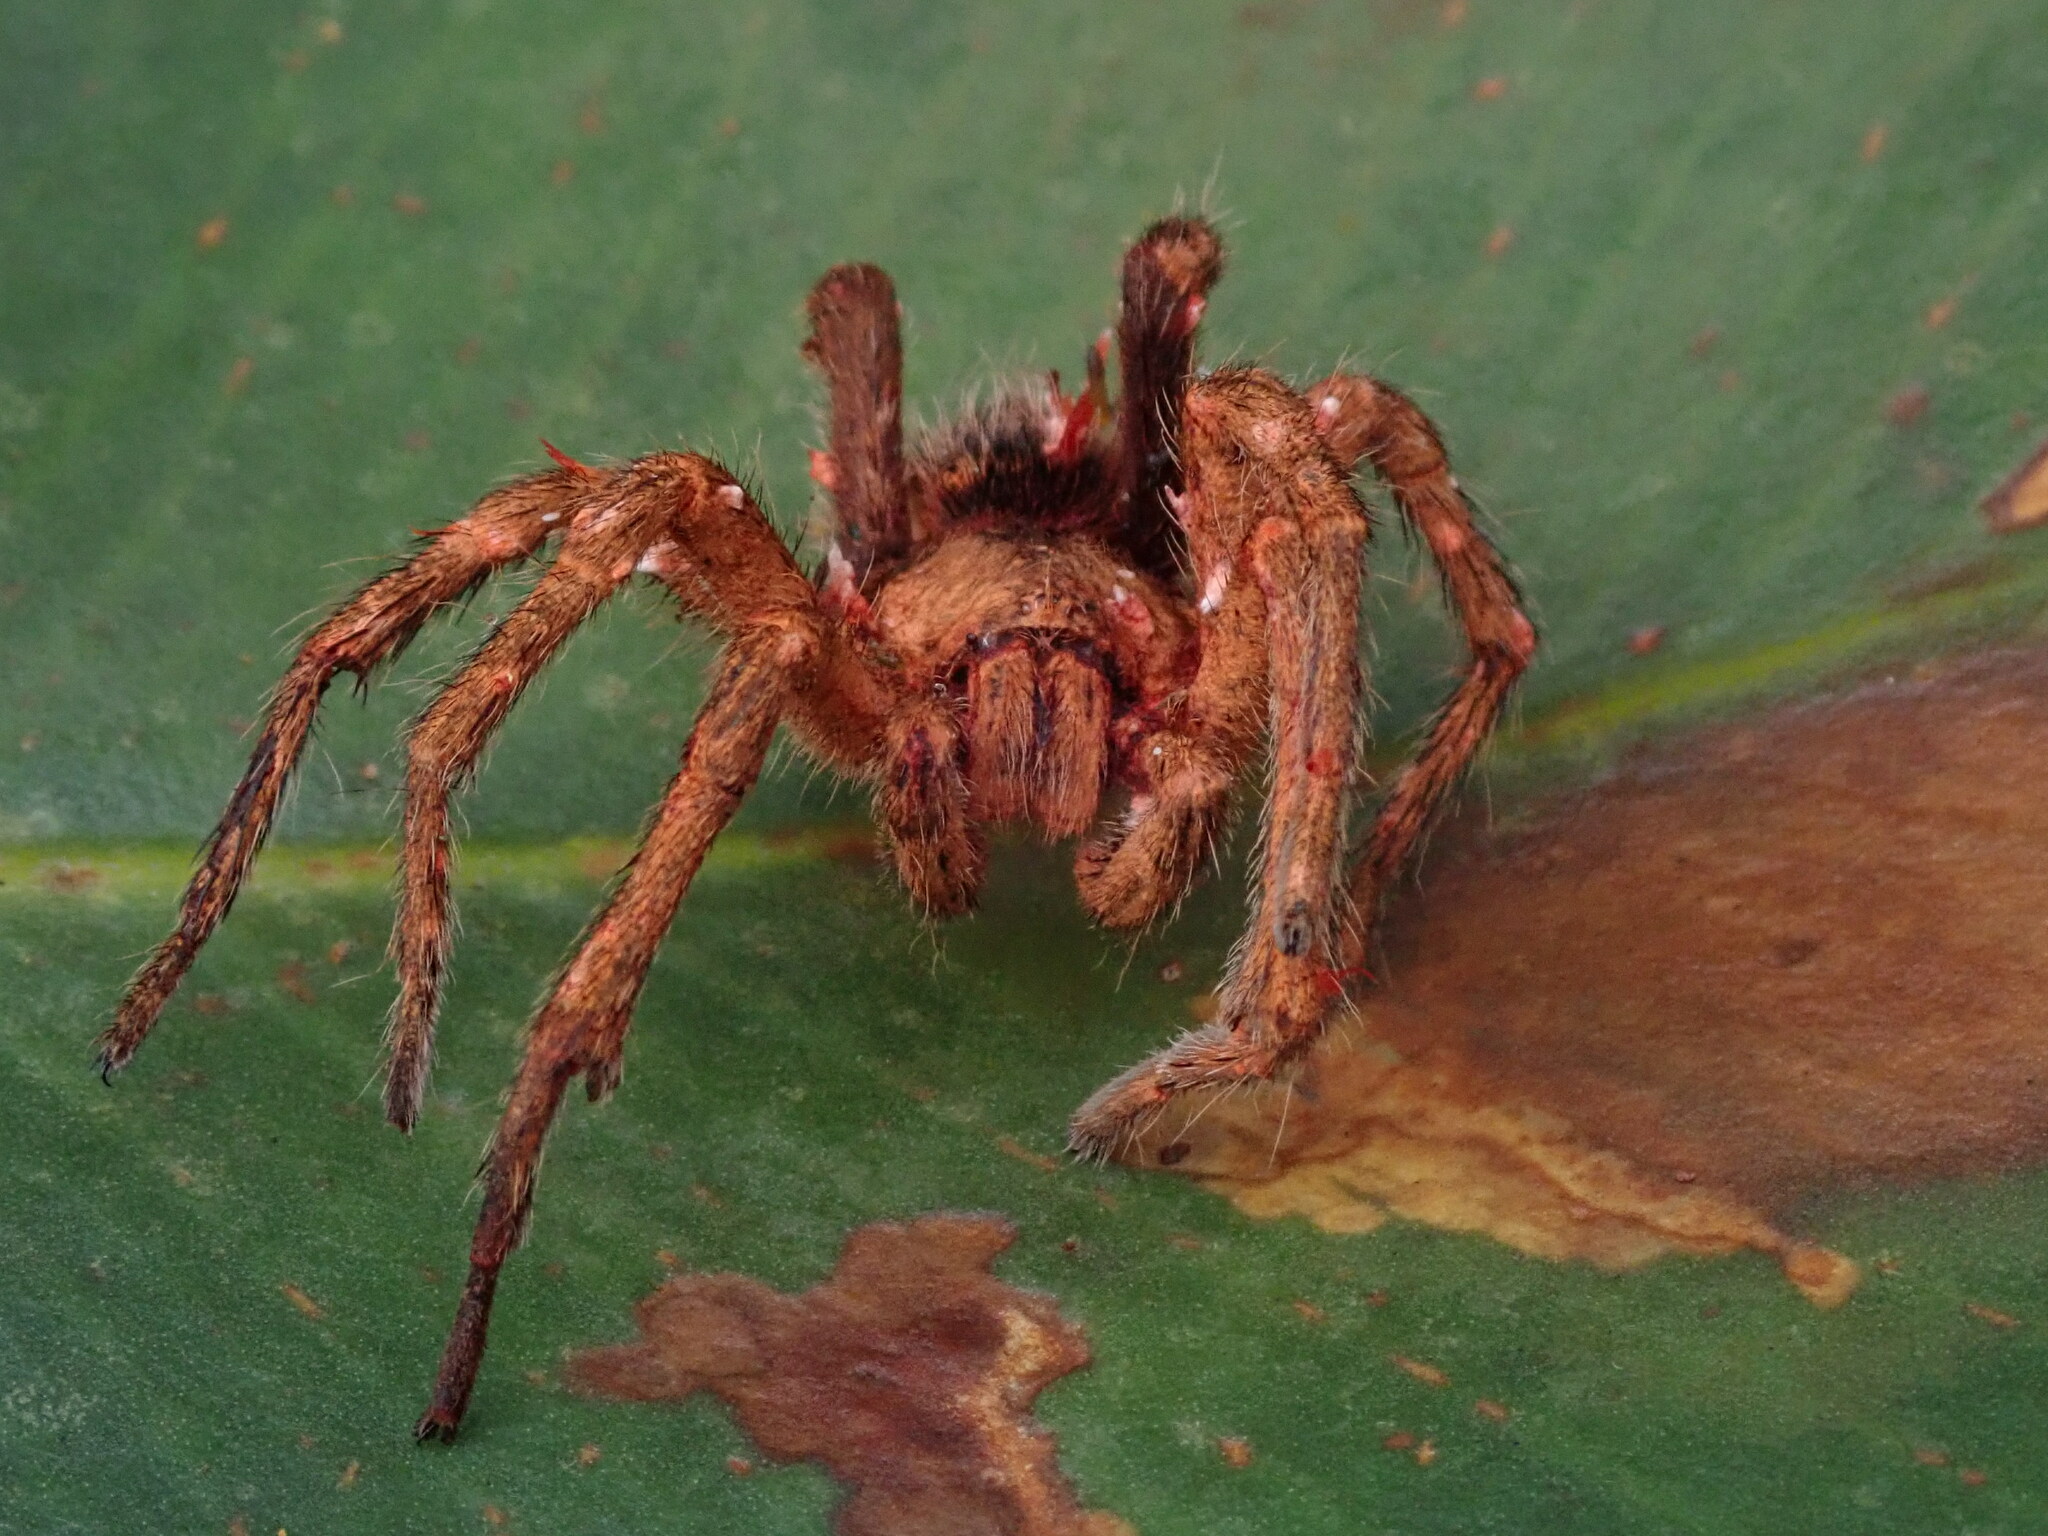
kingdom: Fungi
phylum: Ascomycota
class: Sordariomycetes
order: Hypocreales
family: Ophiocordycipitaceae
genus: Ophiocordyceps
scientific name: Ophiocordyceps caloceroides
